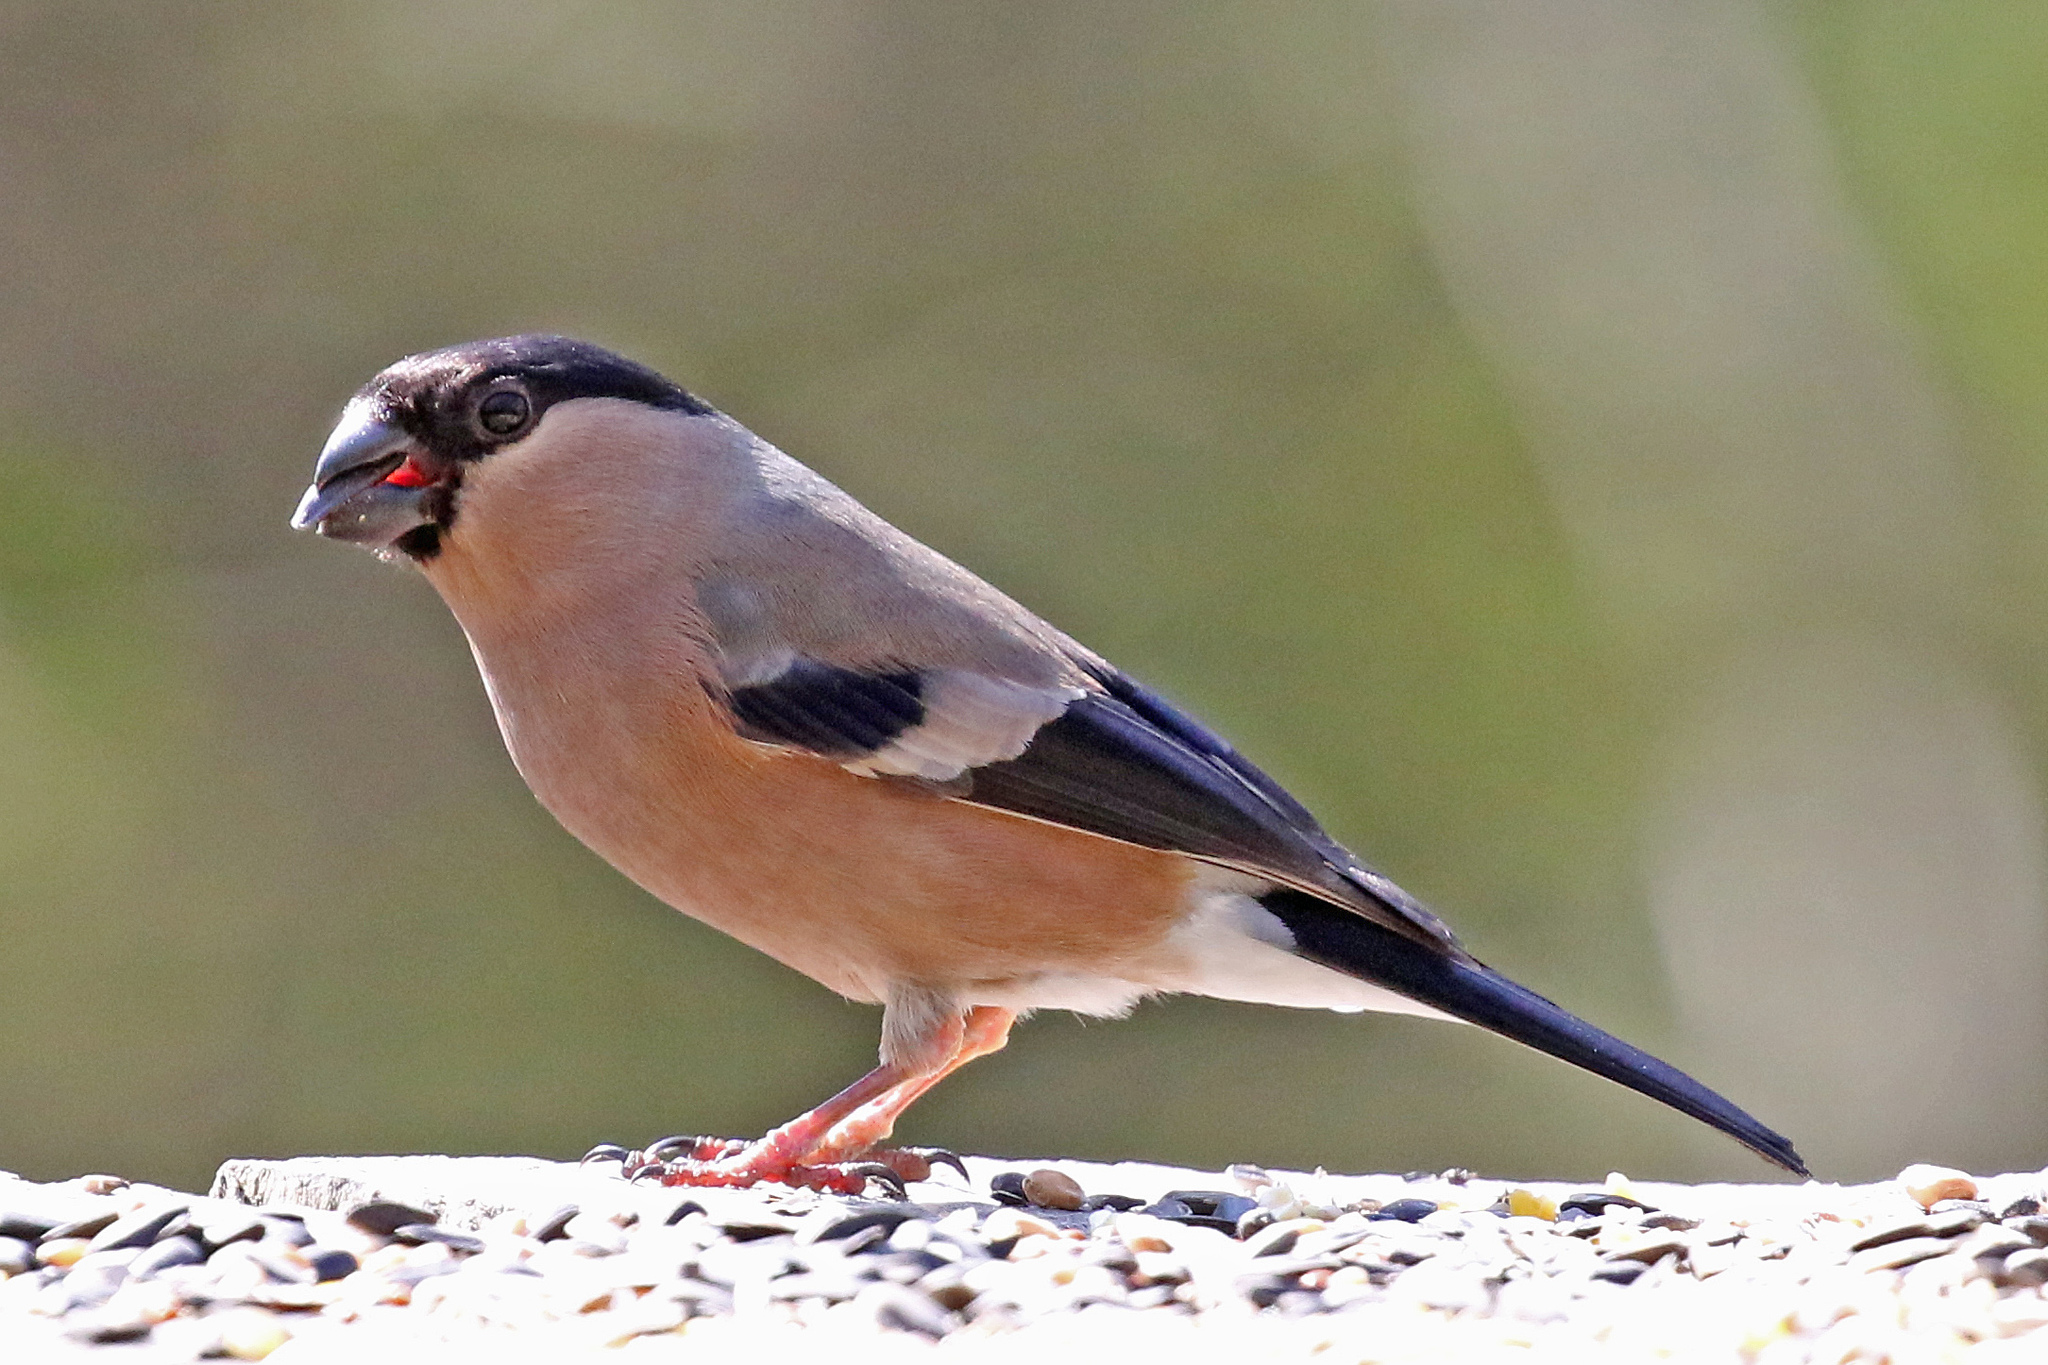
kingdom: Animalia
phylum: Chordata
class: Aves
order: Passeriformes
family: Fringillidae
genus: Pyrrhula
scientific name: Pyrrhula pyrrhula
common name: Eurasian bullfinch
